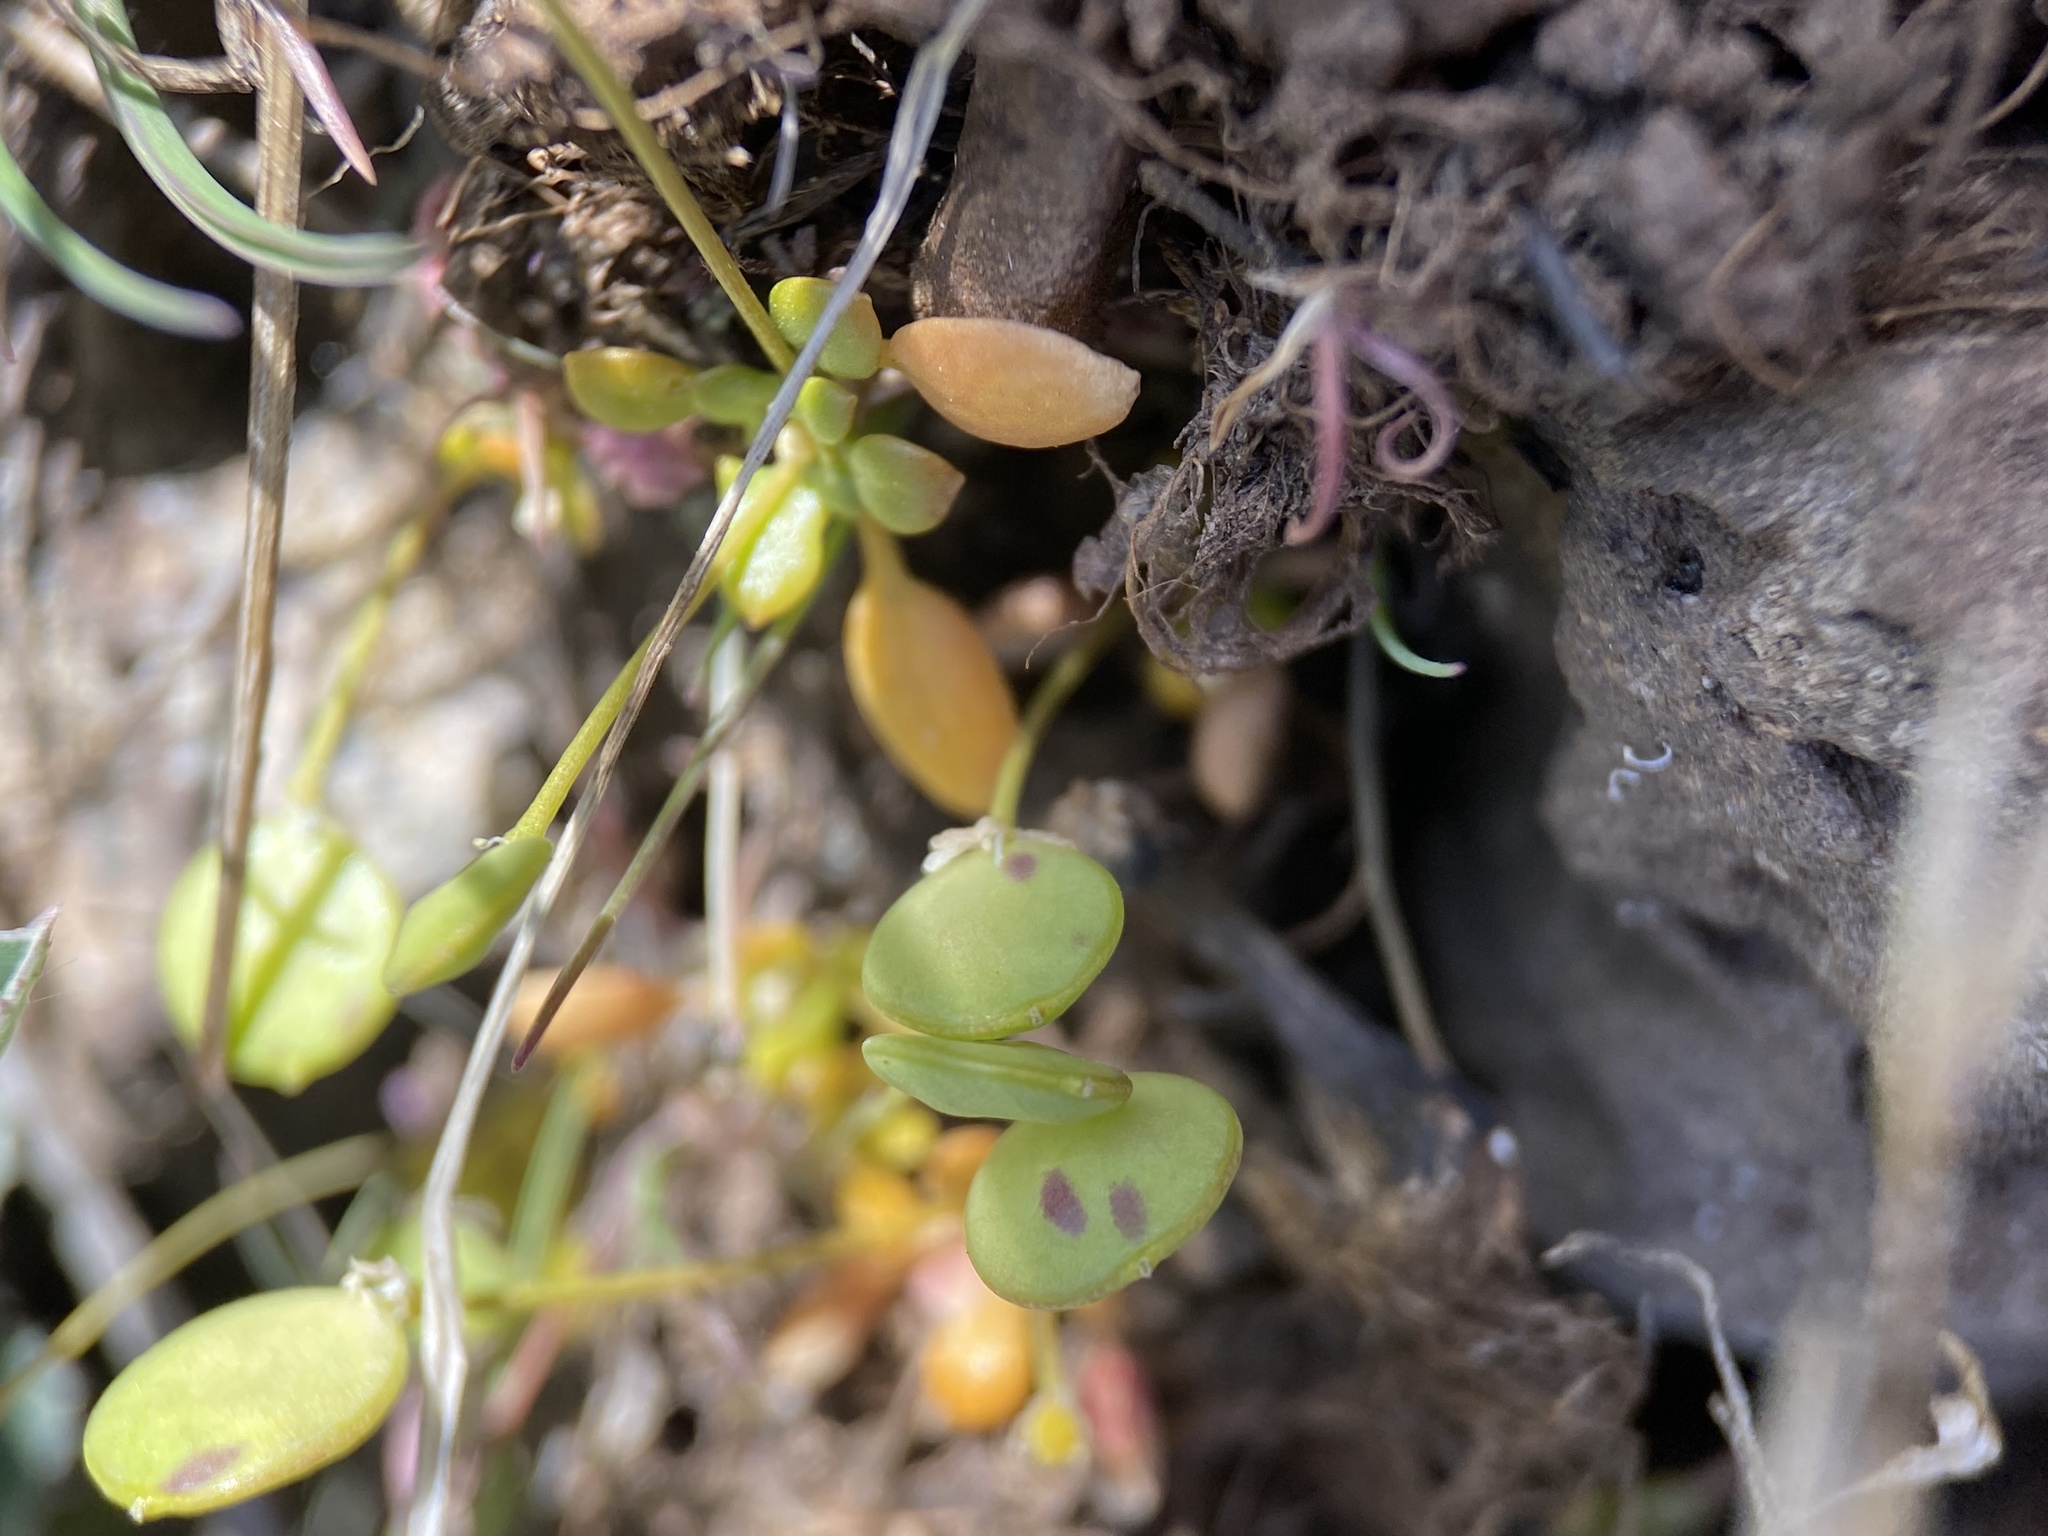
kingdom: Plantae
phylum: Tracheophyta
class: Magnoliopsida
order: Brassicales
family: Brassicaceae
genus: Idahoa
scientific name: Idahoa scapigera
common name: Scalepod
